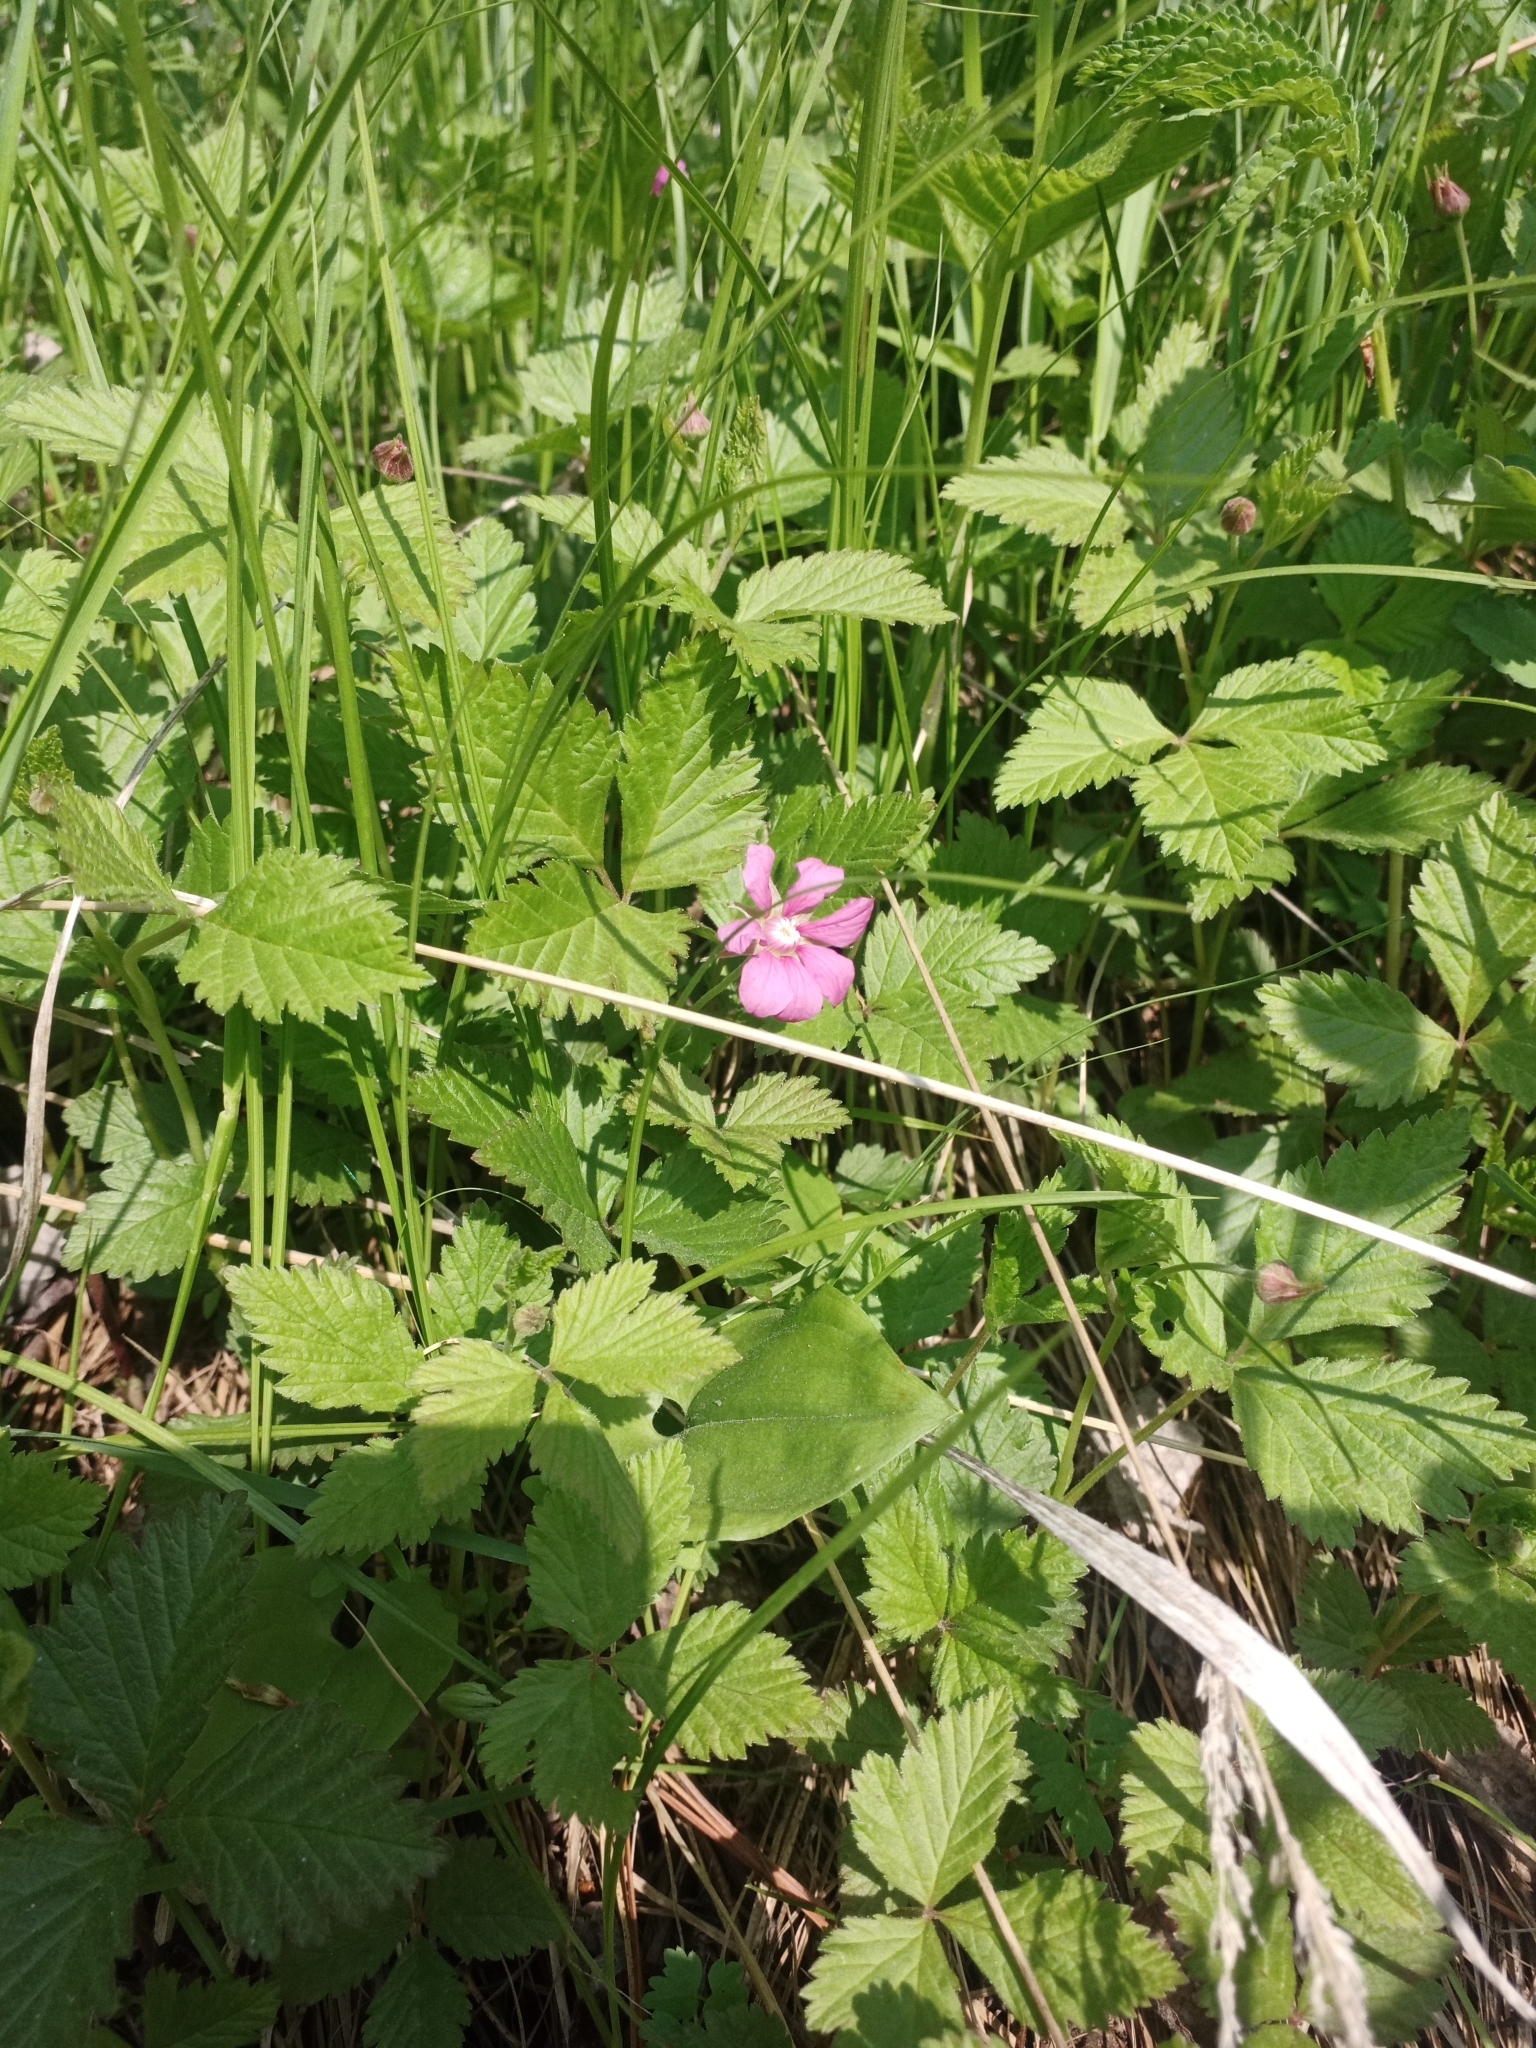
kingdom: Plantae
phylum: Tracheophyta
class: Magnoliopsida
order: Rosales
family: Rosaceae
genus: Rubus
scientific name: Rubus arcticus
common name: Arctic bramble
